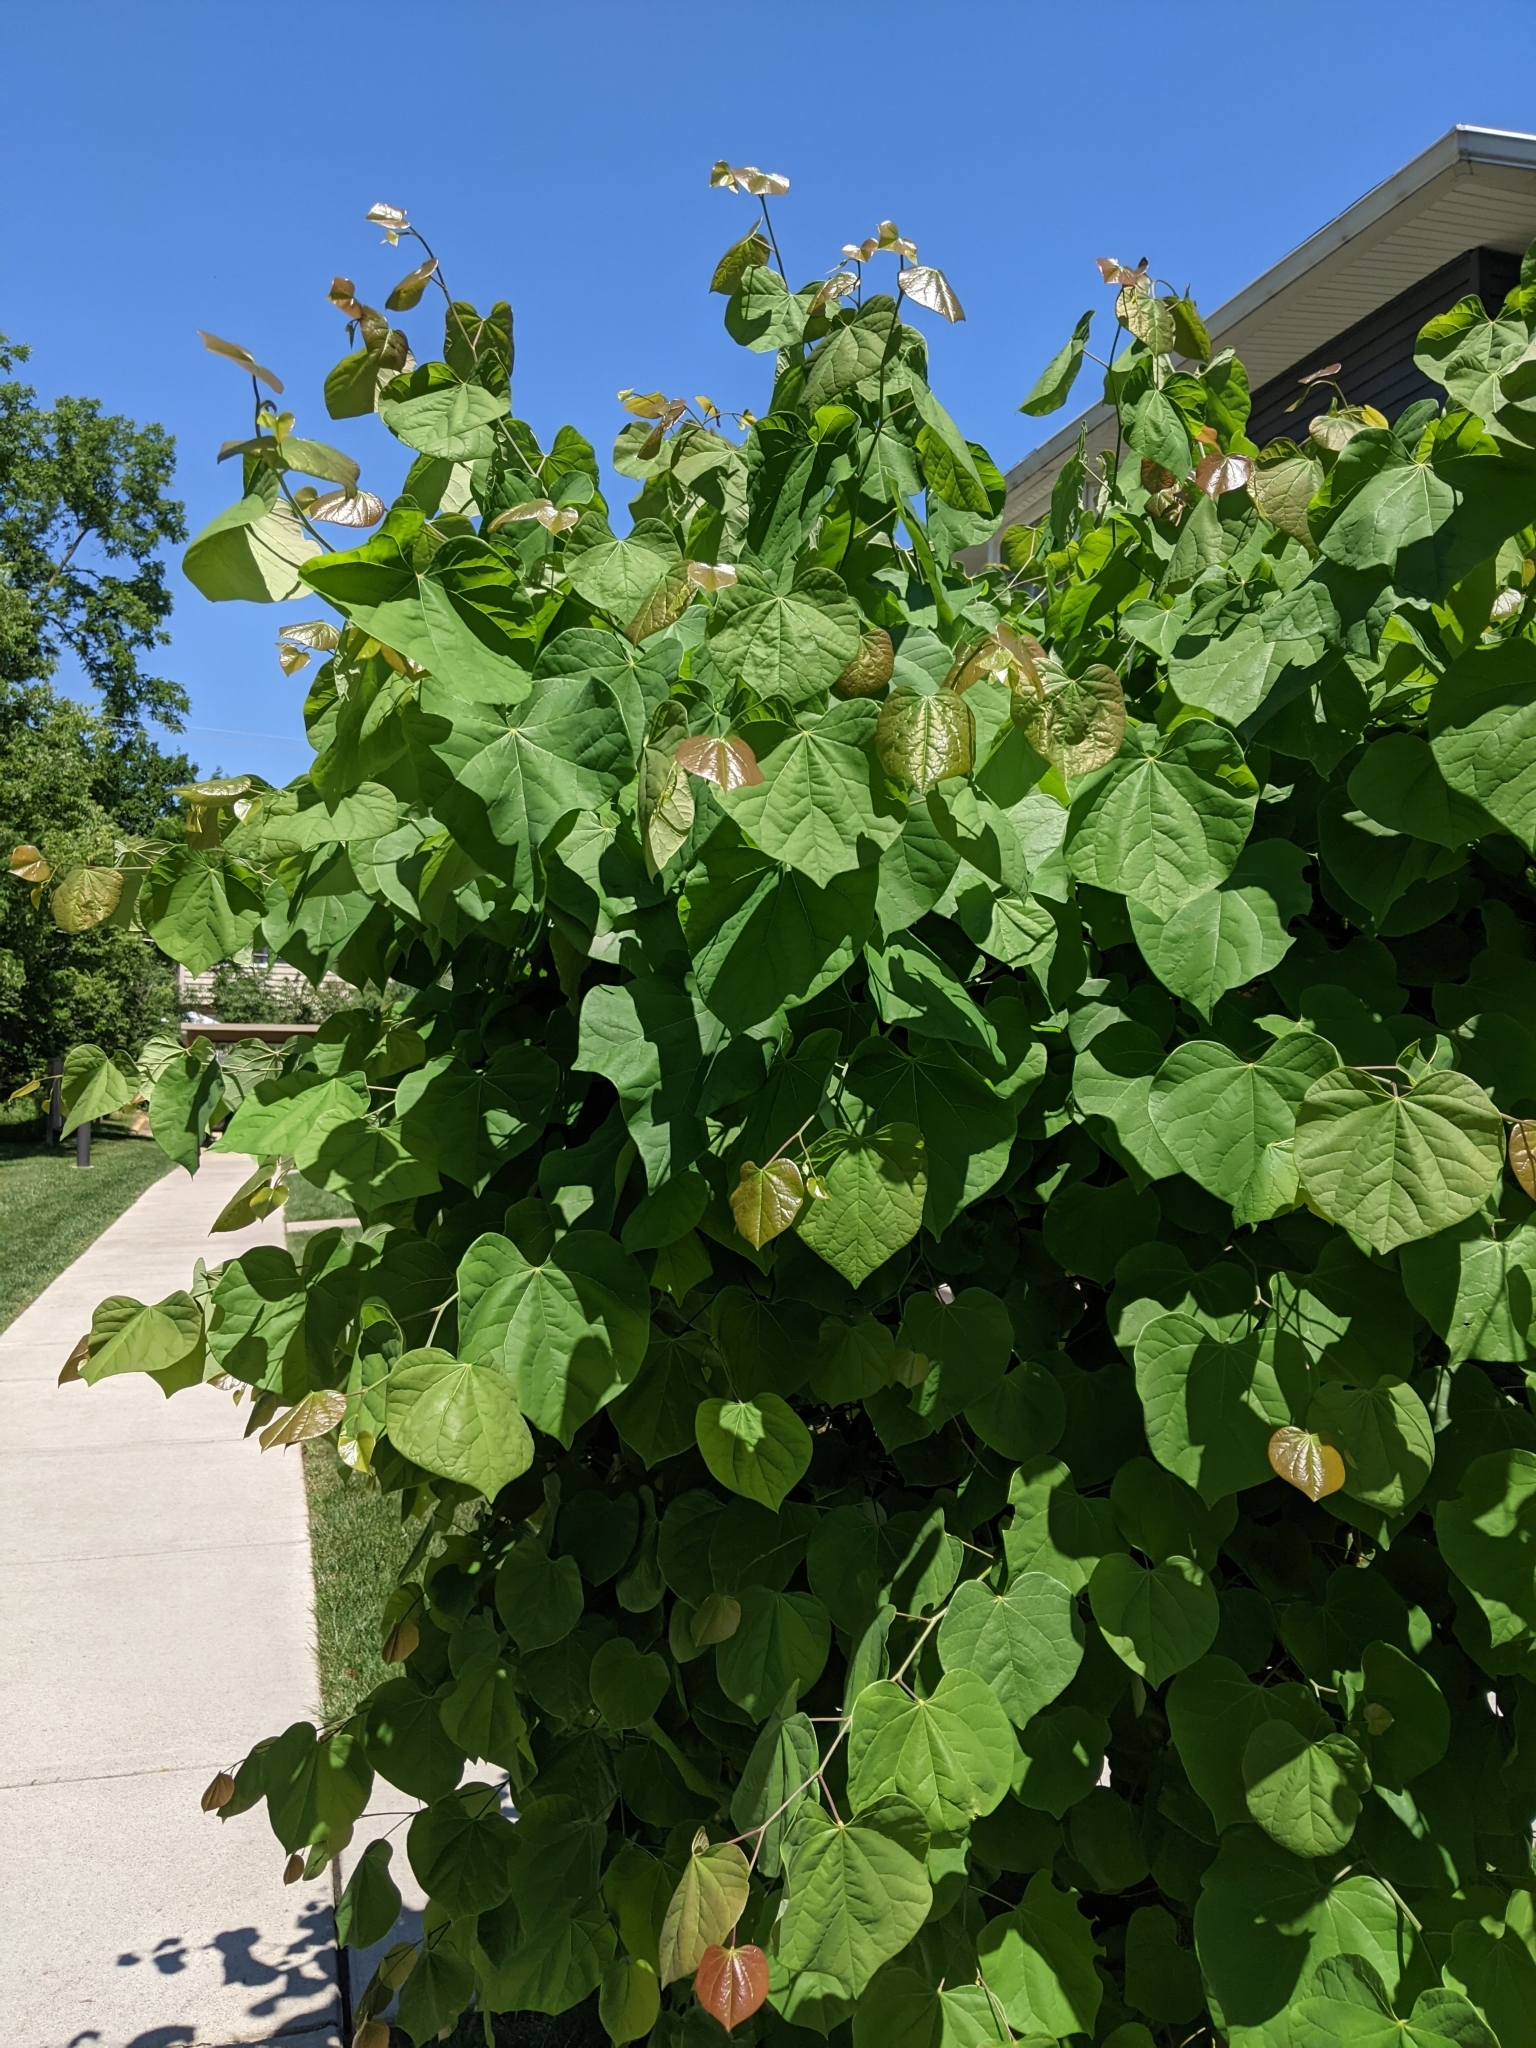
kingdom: Plantae
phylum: Tracheophyta
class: Magnoliopsida
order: Fabales
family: Fabaceae
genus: Cercis
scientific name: Cercis canadensis
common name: Eastern redbud
